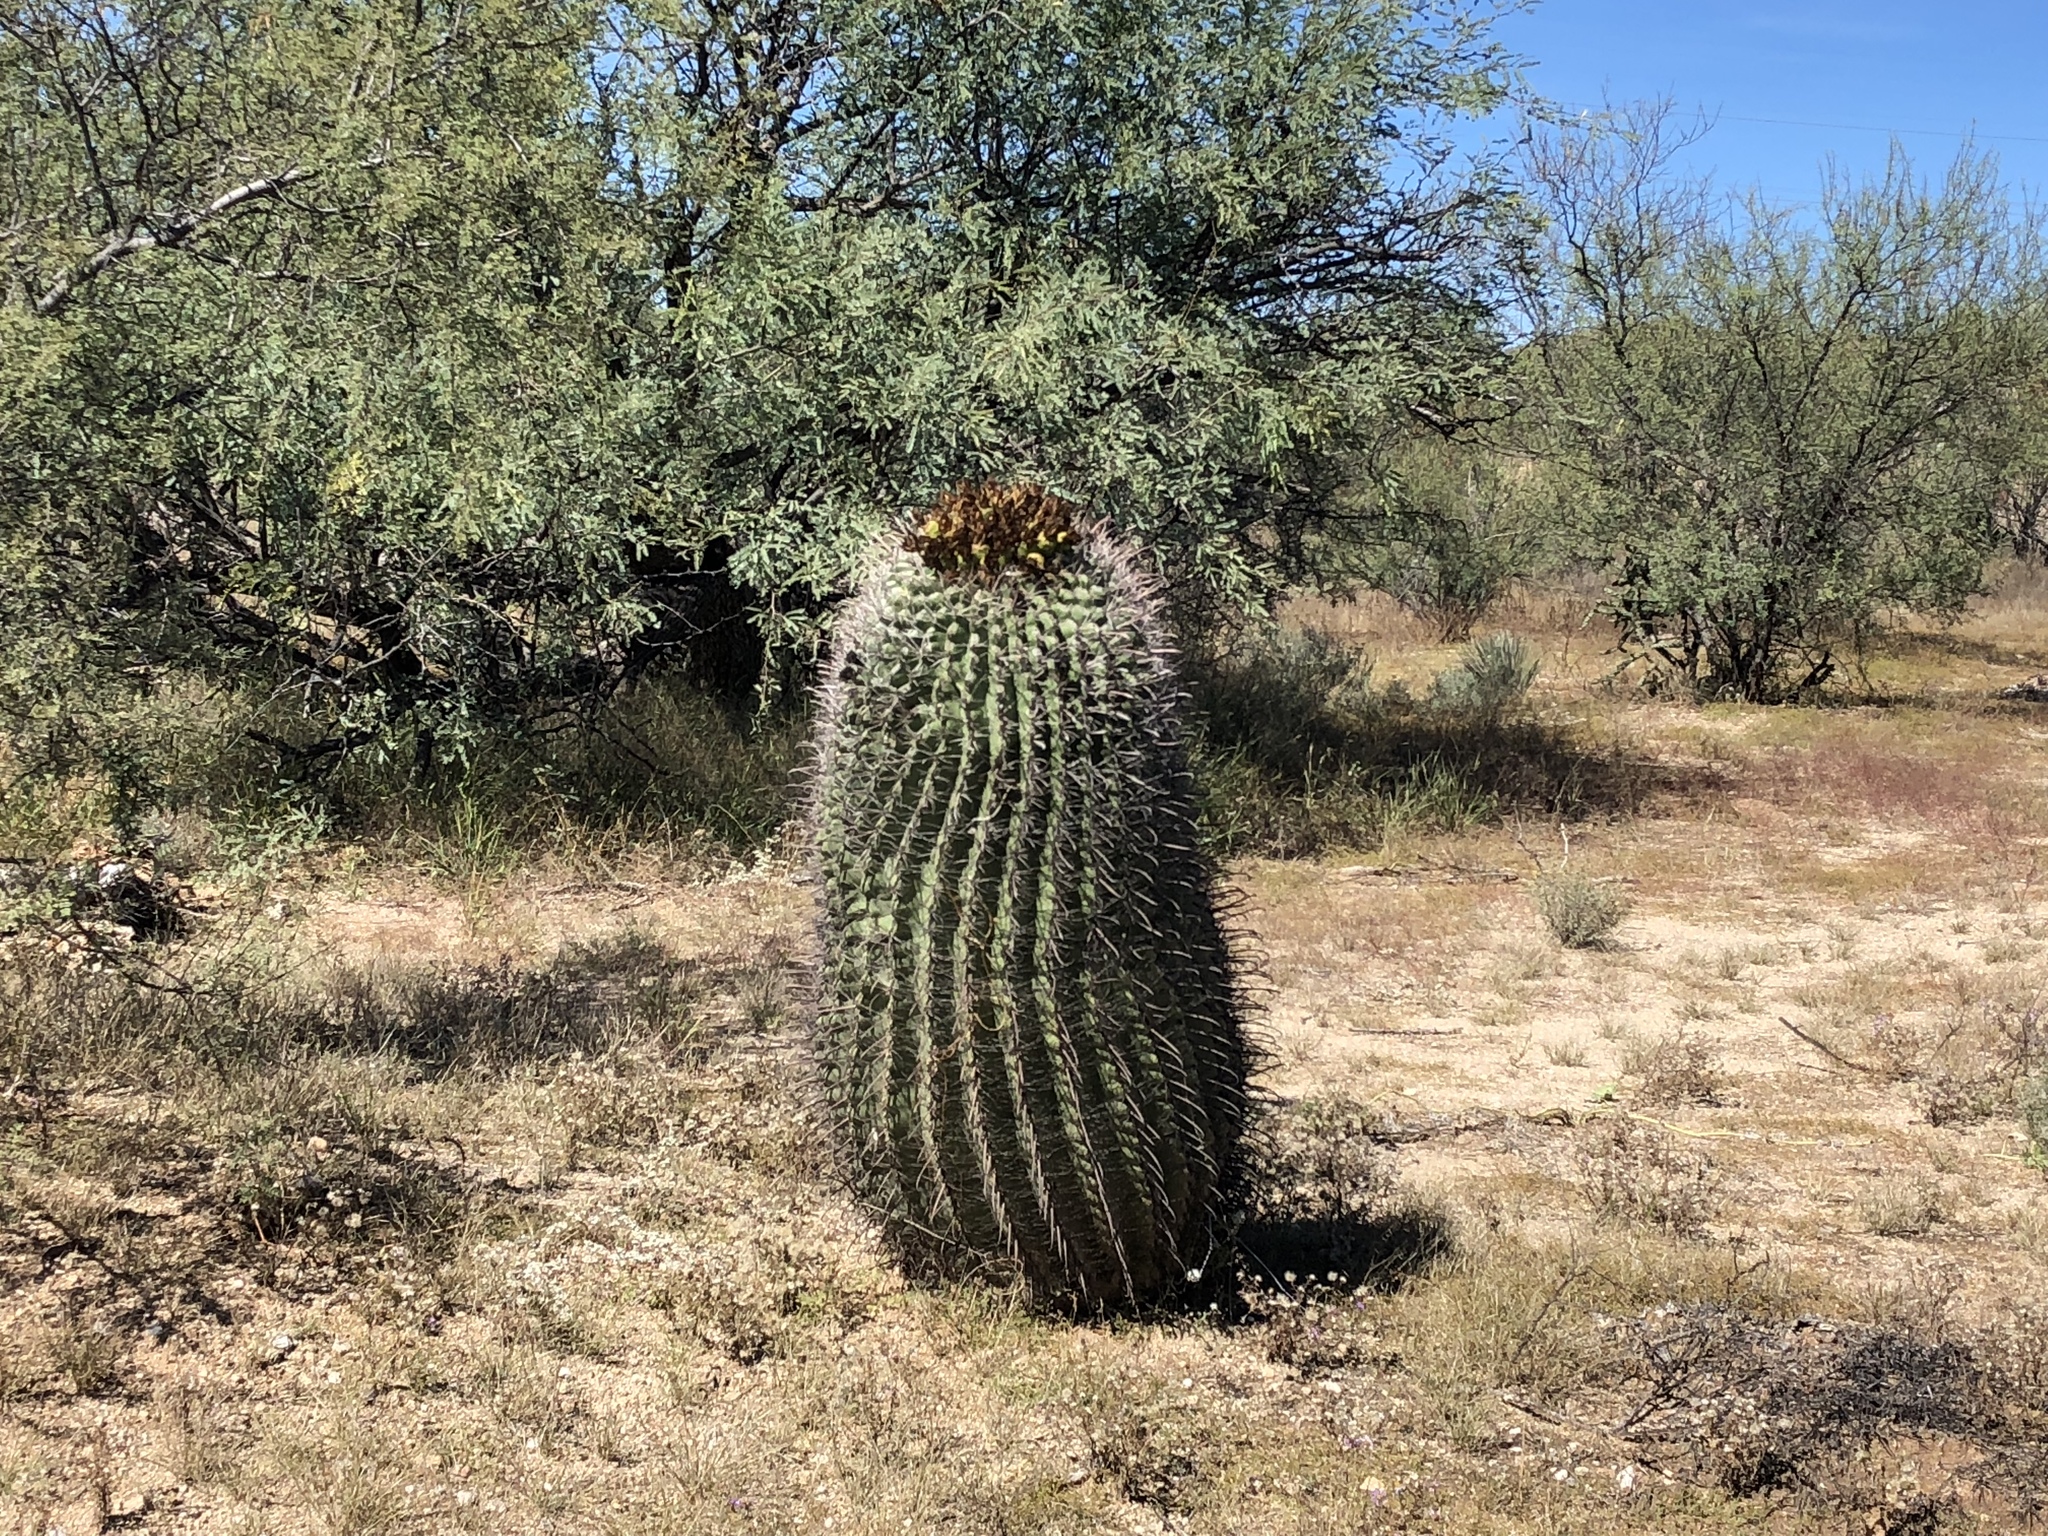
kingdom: Plantae
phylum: Tracheophyta
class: Magnoliopsida
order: Caryophyllales
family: Cactaceae
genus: Ferocactus
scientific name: Ferocactus wislizeni
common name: Candy barrel cactus
